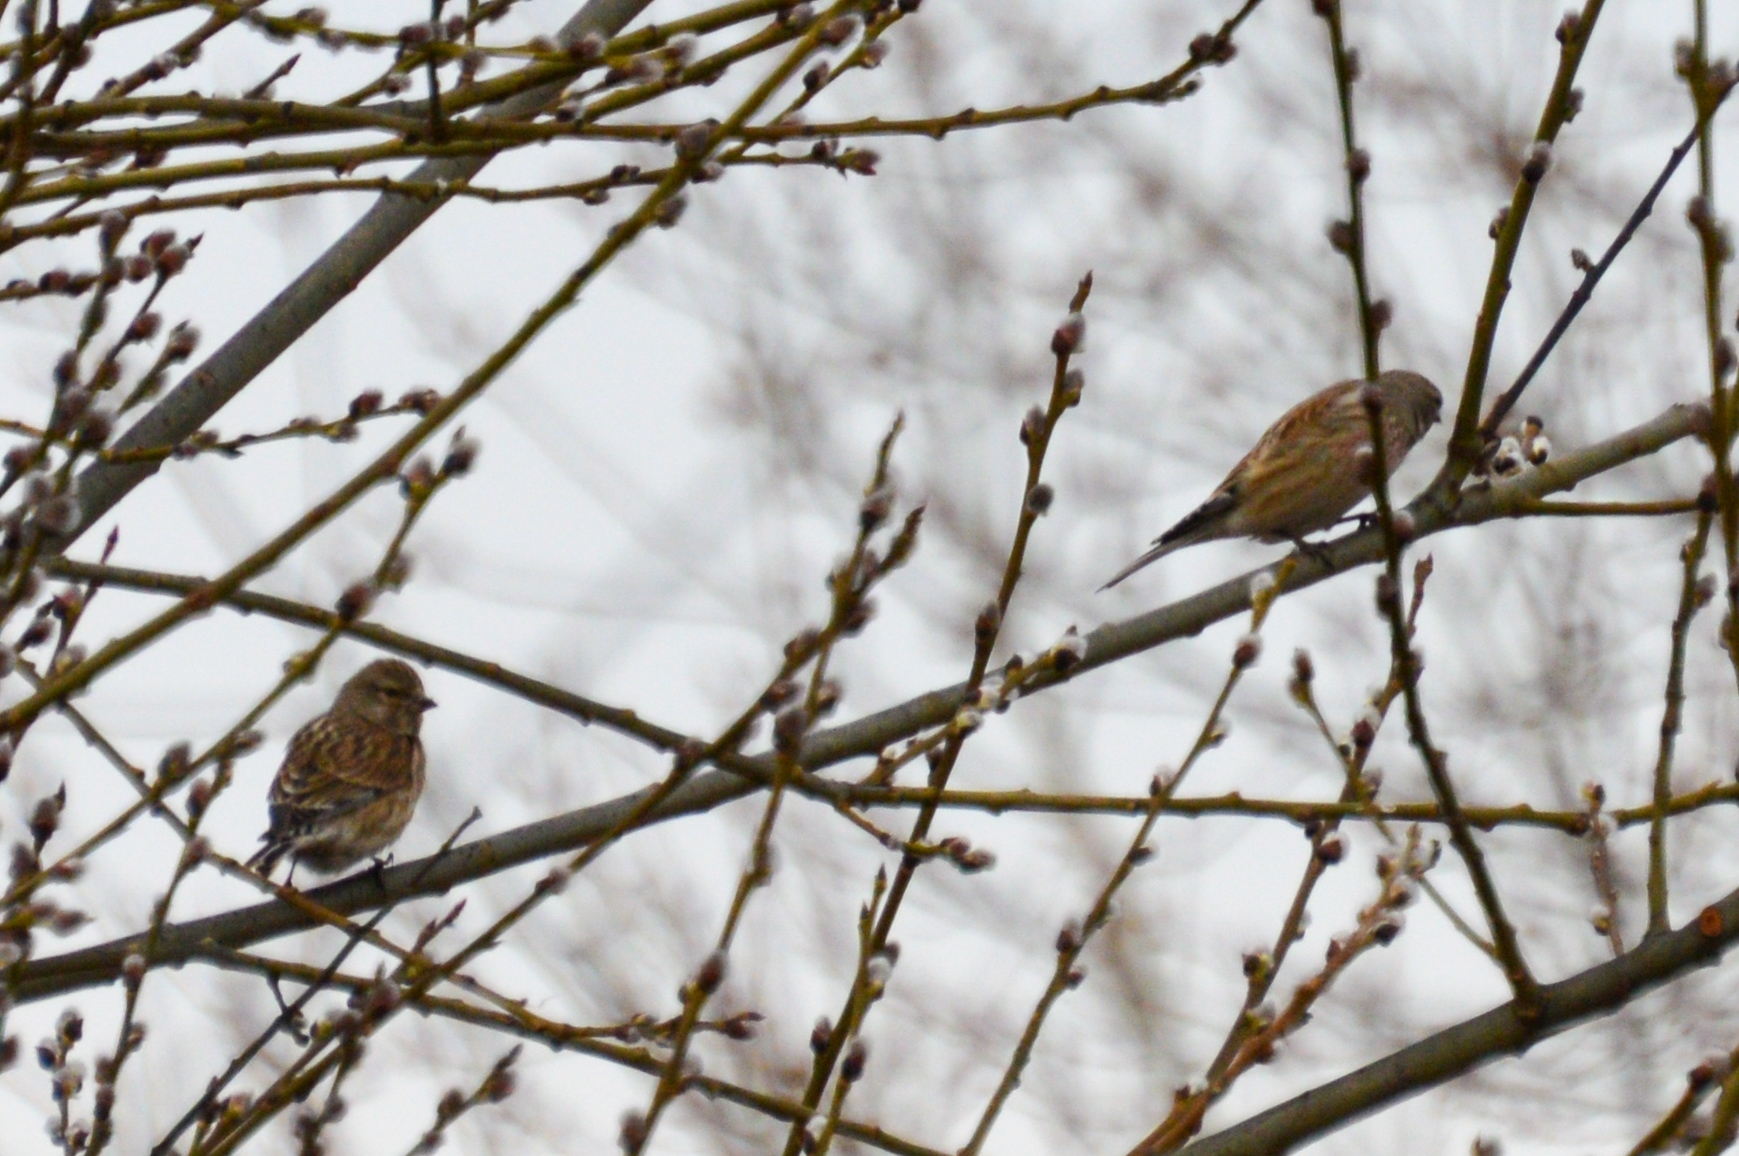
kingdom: Animalia
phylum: Chordata
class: Aves
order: Passeriformes
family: Fringillidae
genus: Linaria
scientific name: Linaria cannabina
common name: Common linnet
